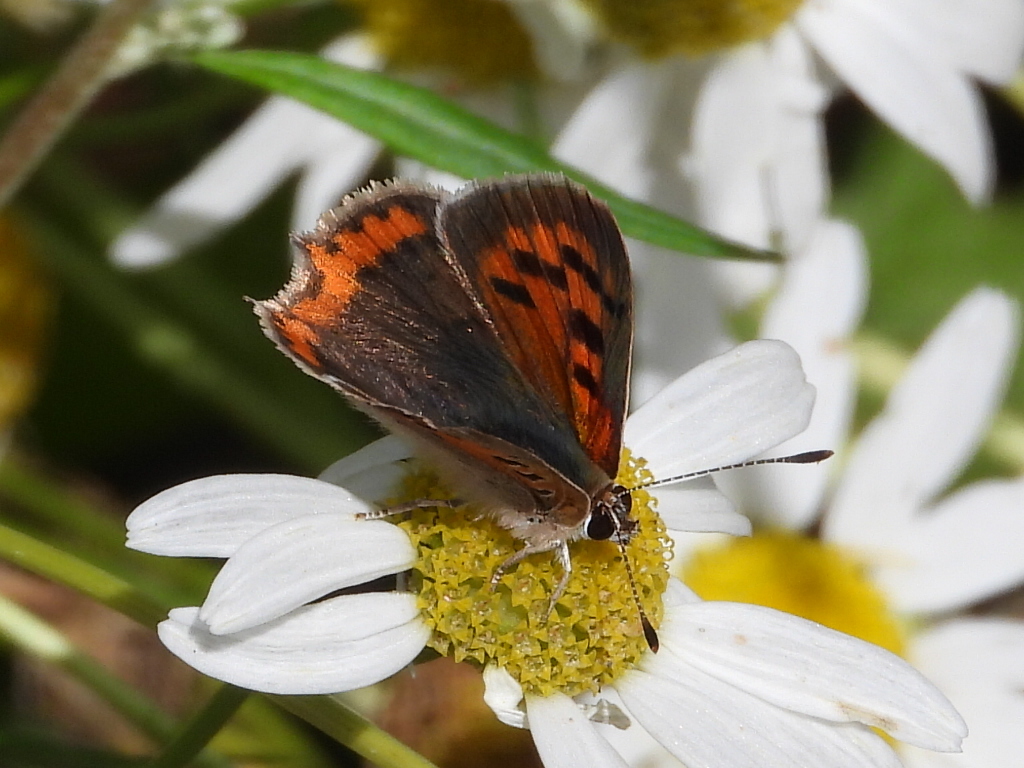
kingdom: Animalia
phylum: Arthropoda
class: Insecta
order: Lepidoptera
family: Lycaenidae
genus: Lycaena
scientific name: Lycaena phlaeas
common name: Small copper
